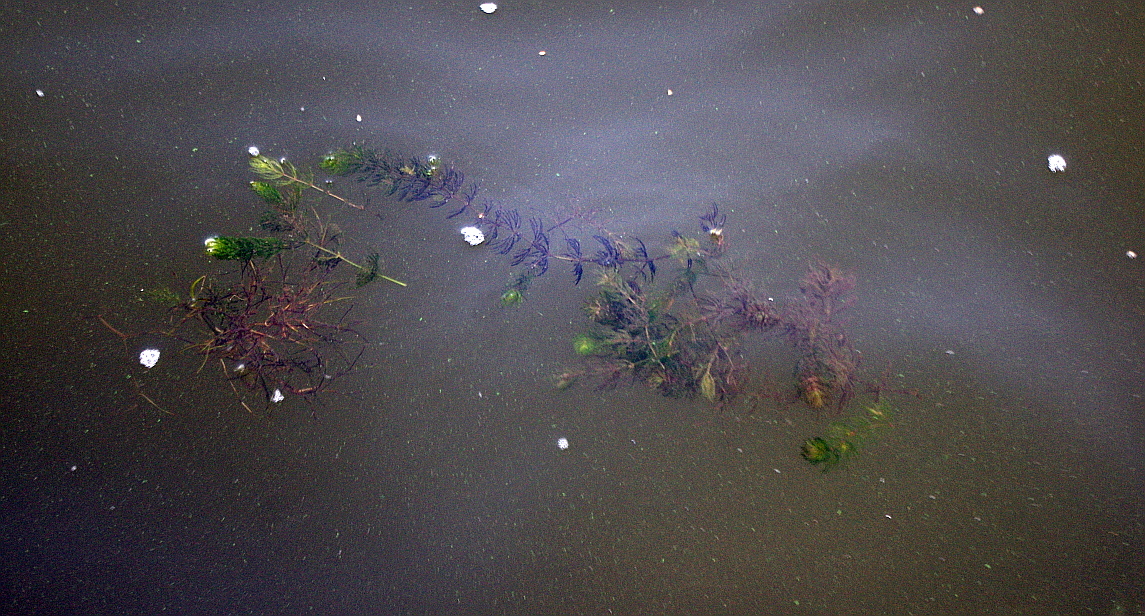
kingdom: Plantae
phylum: Tracheophyta
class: Magnoliopsida
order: Ceratophyllales
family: Ceratophyllaceae
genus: Ceratophyllum
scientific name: Ceratophyllum demersum
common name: Rigid hornwort
